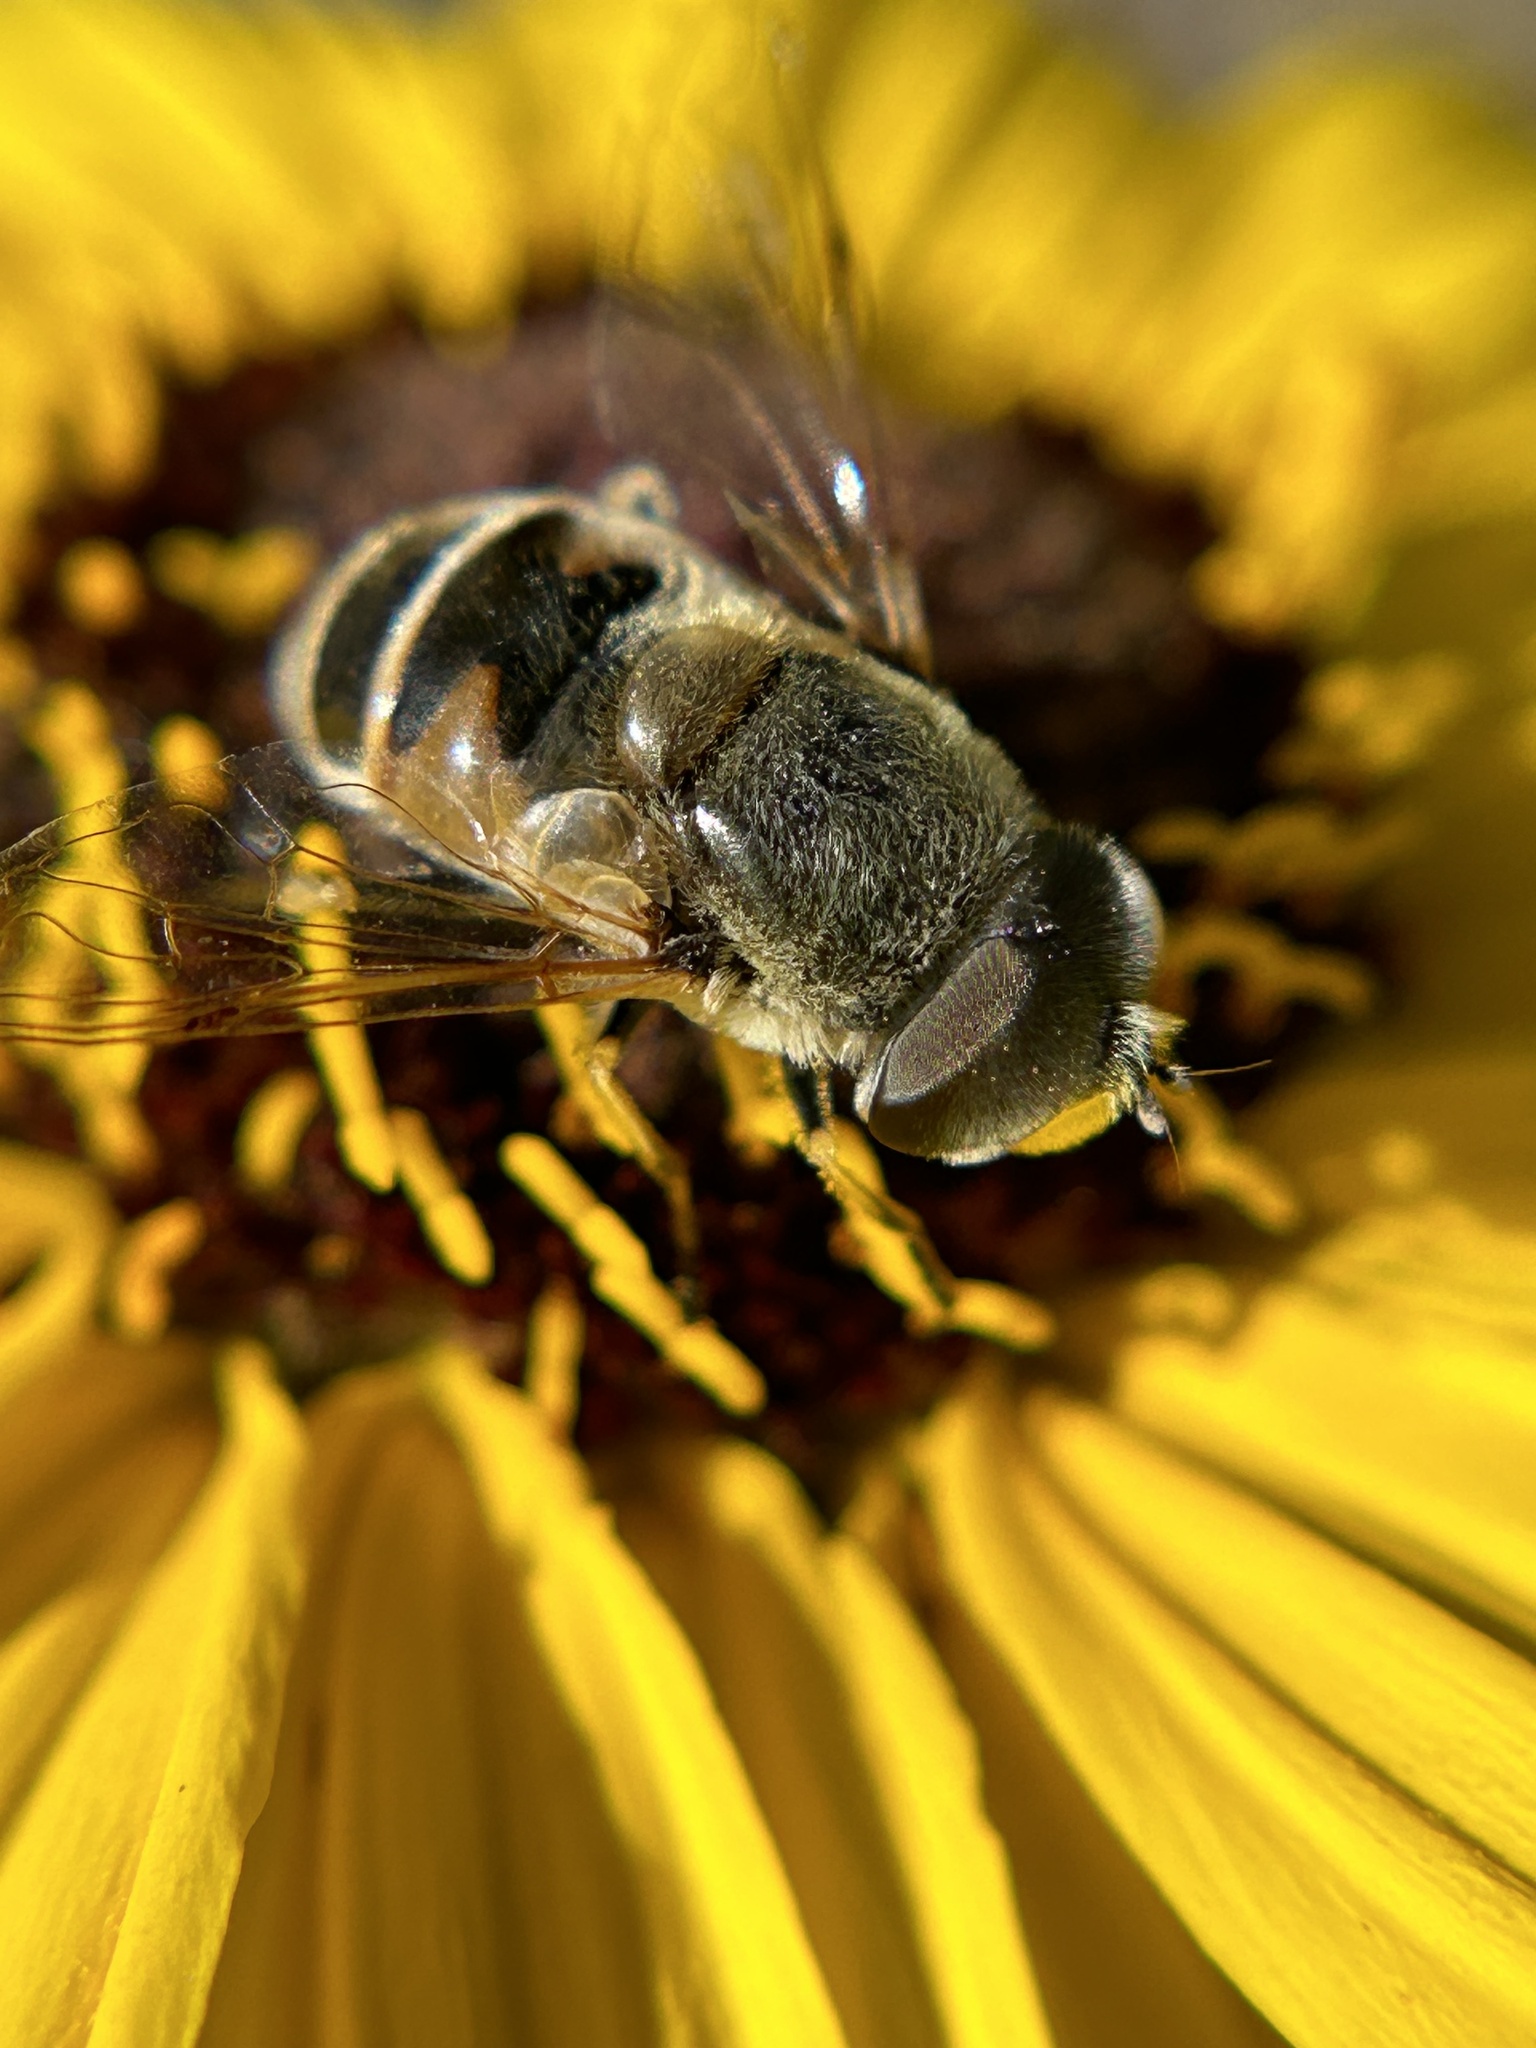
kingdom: Animalia
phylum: Arthropoda
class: Insecta
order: Diptera
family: Syrphidae
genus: Eristalis
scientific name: Eristalis stipator
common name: Yellow-shouldered drone fly
